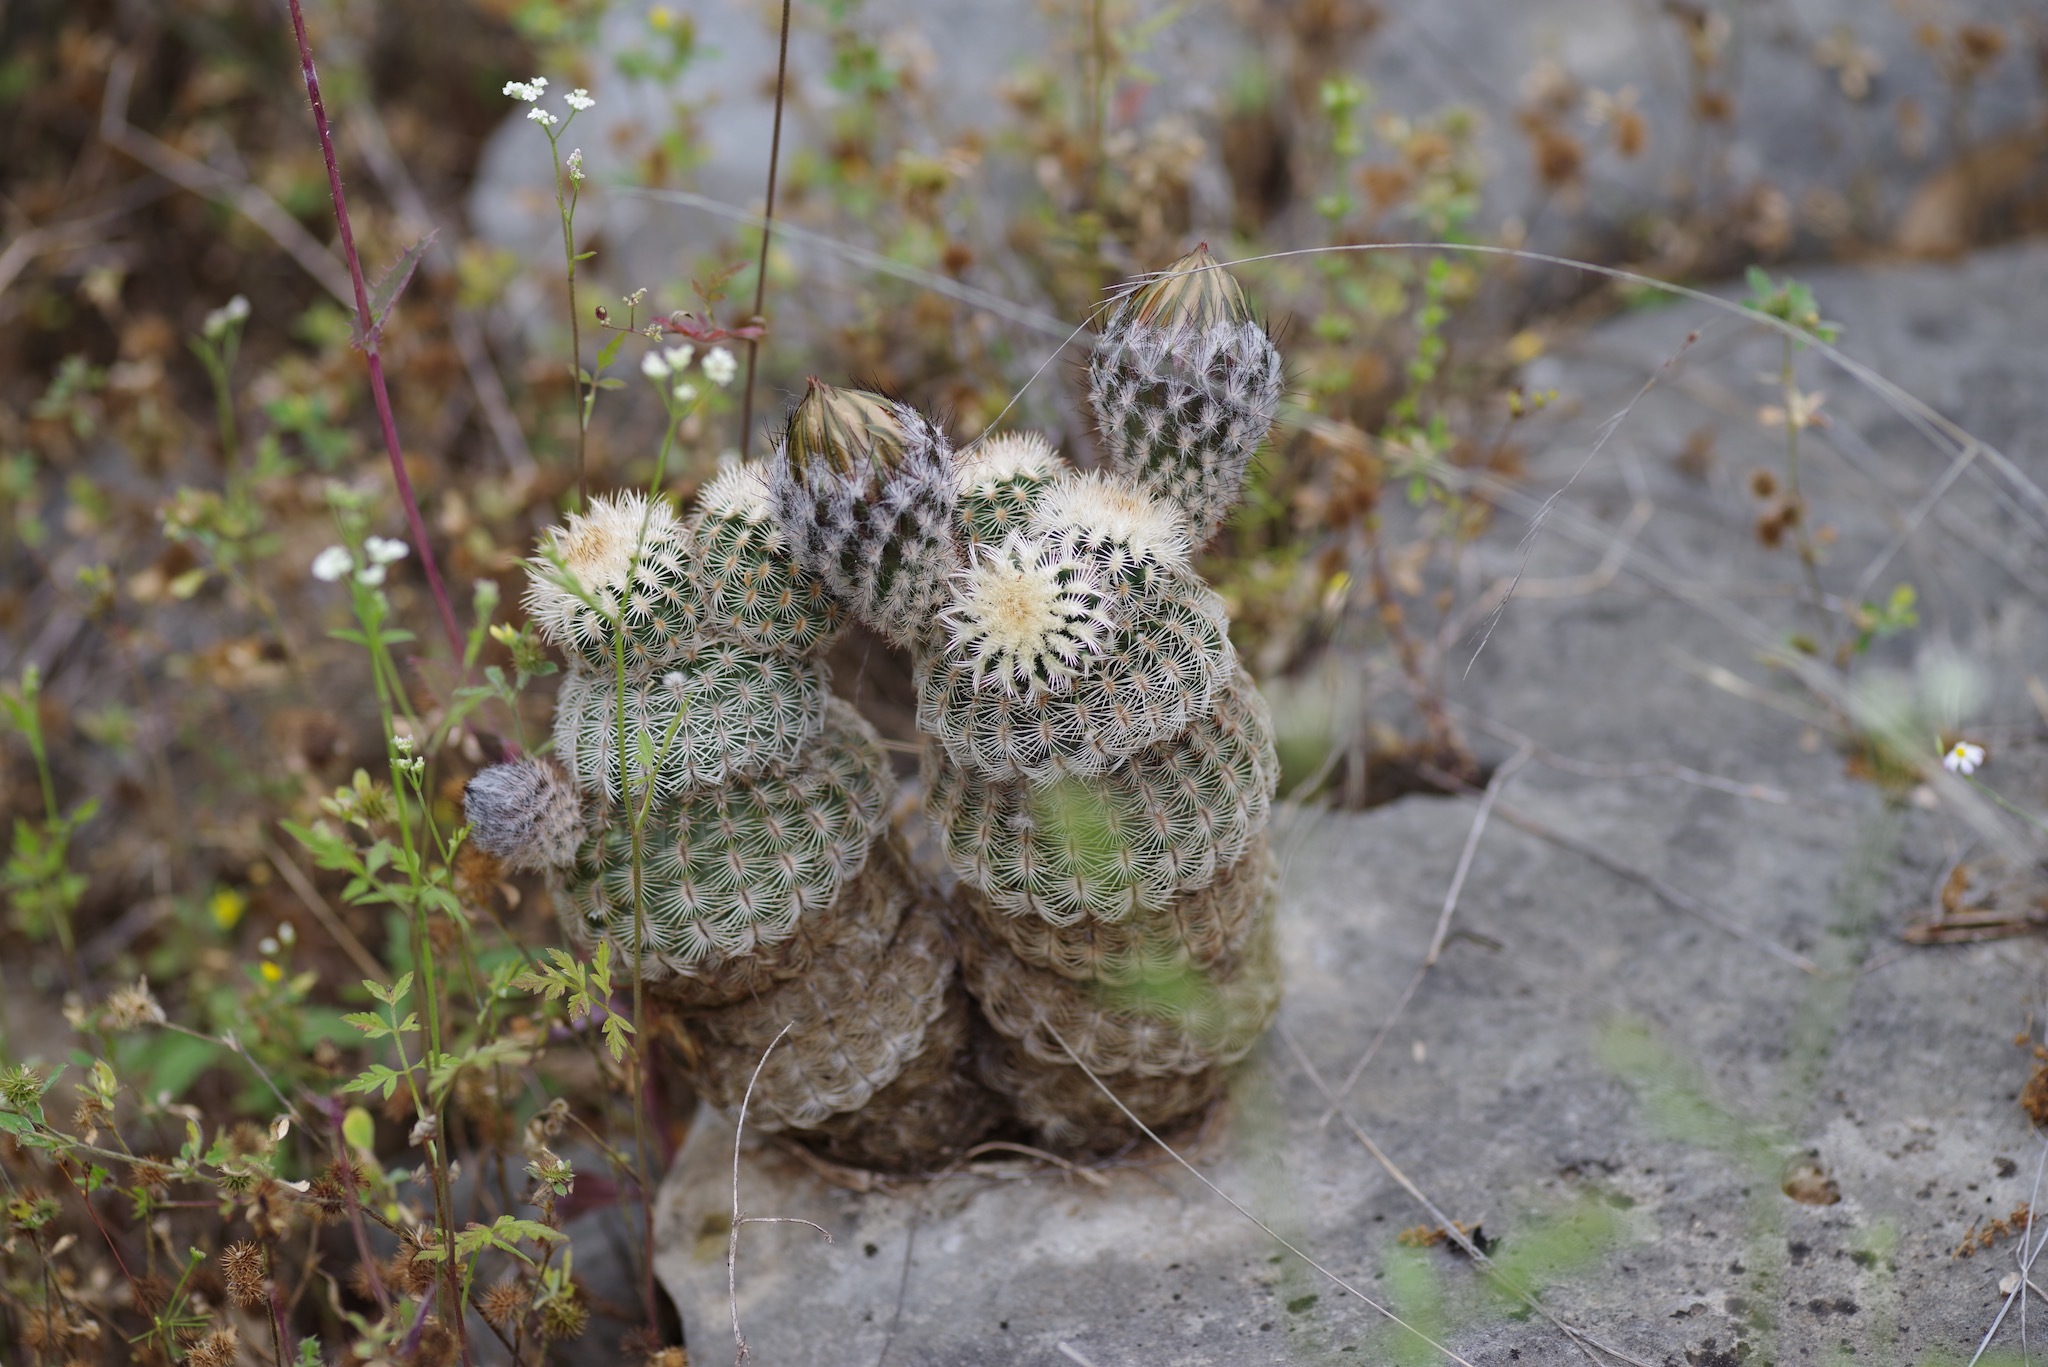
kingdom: Plantae
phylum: Tracheophyta
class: Magnoliopsida
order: Caryophyllales
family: Cactaceae
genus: Echinocereus
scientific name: Echinocereus reichenbachii
